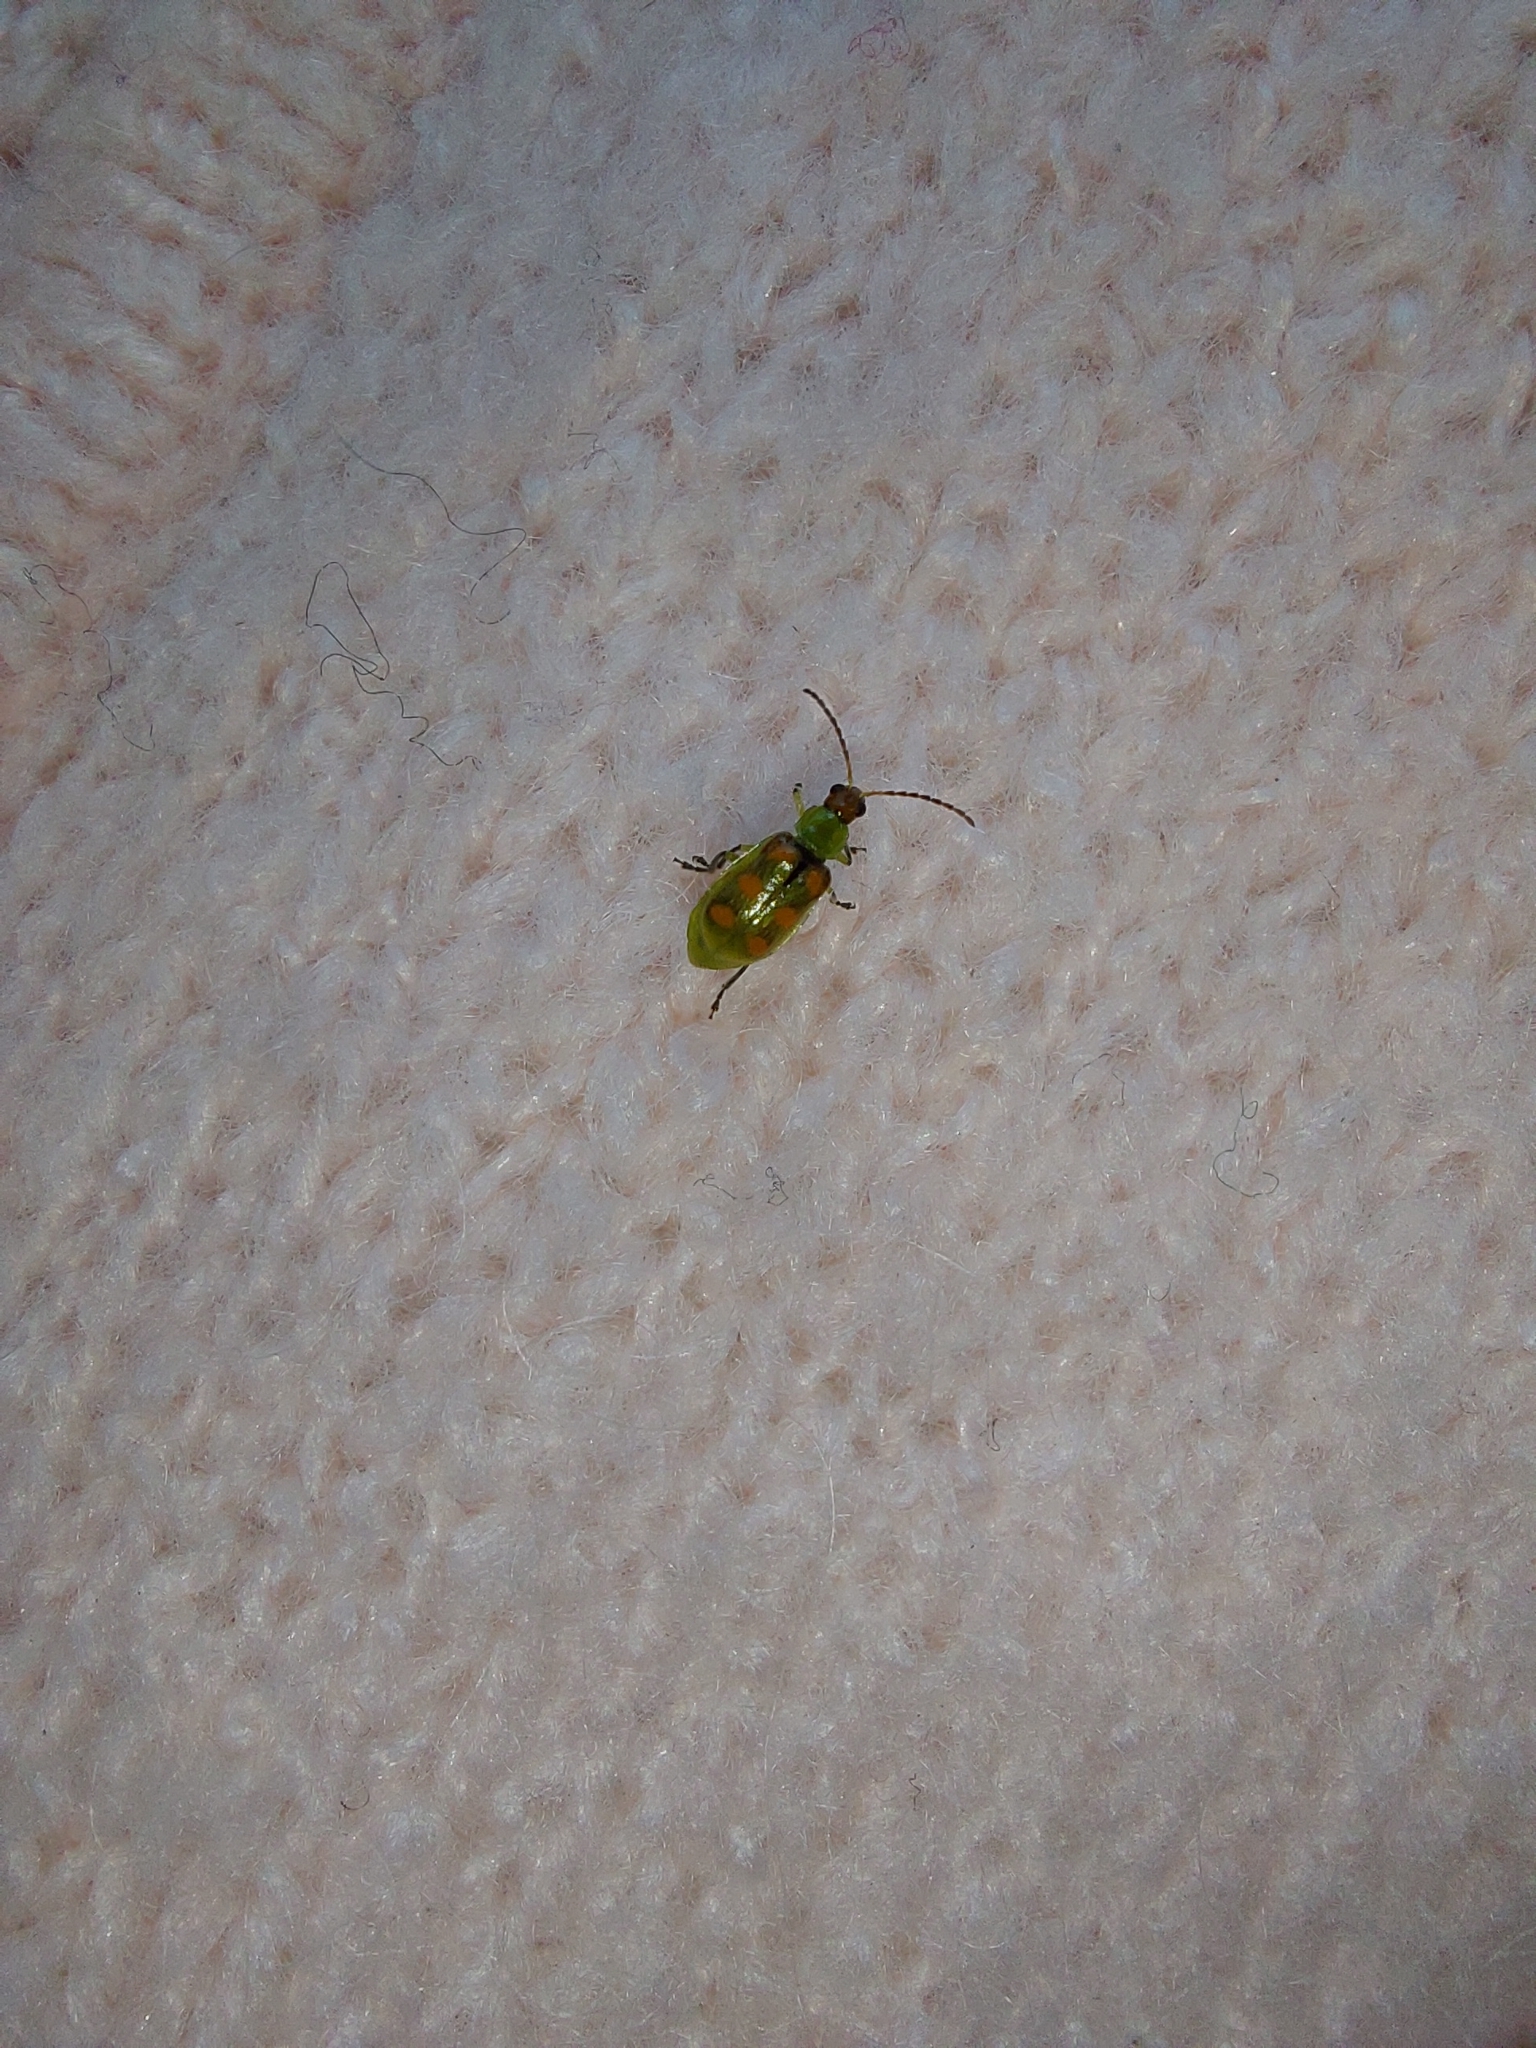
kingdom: Animalia
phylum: Arthropoda
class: Insecta
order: Coleoptera
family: Chrysomelidae
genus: Diabrotica
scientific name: Diabrotica speciosa
